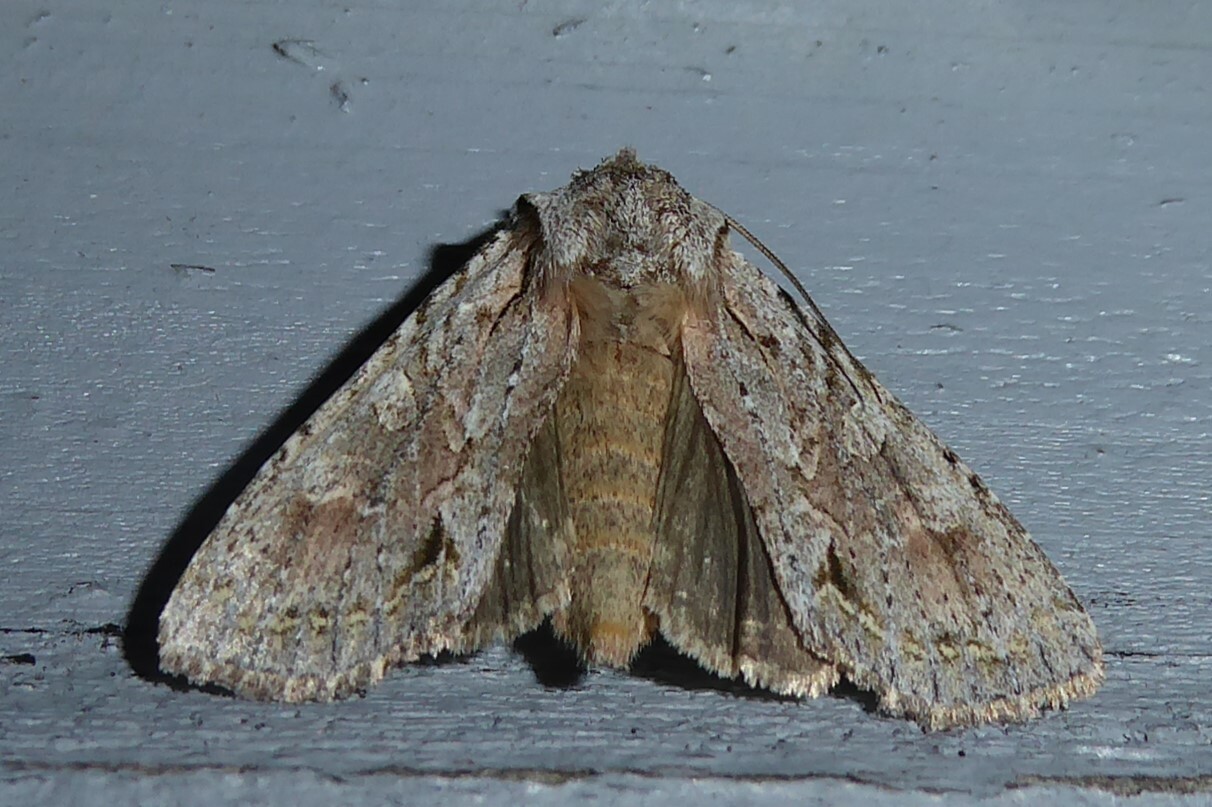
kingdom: Animalia
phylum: Arthropoda
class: Insecta
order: Lepidoptera
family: Noctuidae
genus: Ichneutica
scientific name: Ichneutica mutans
